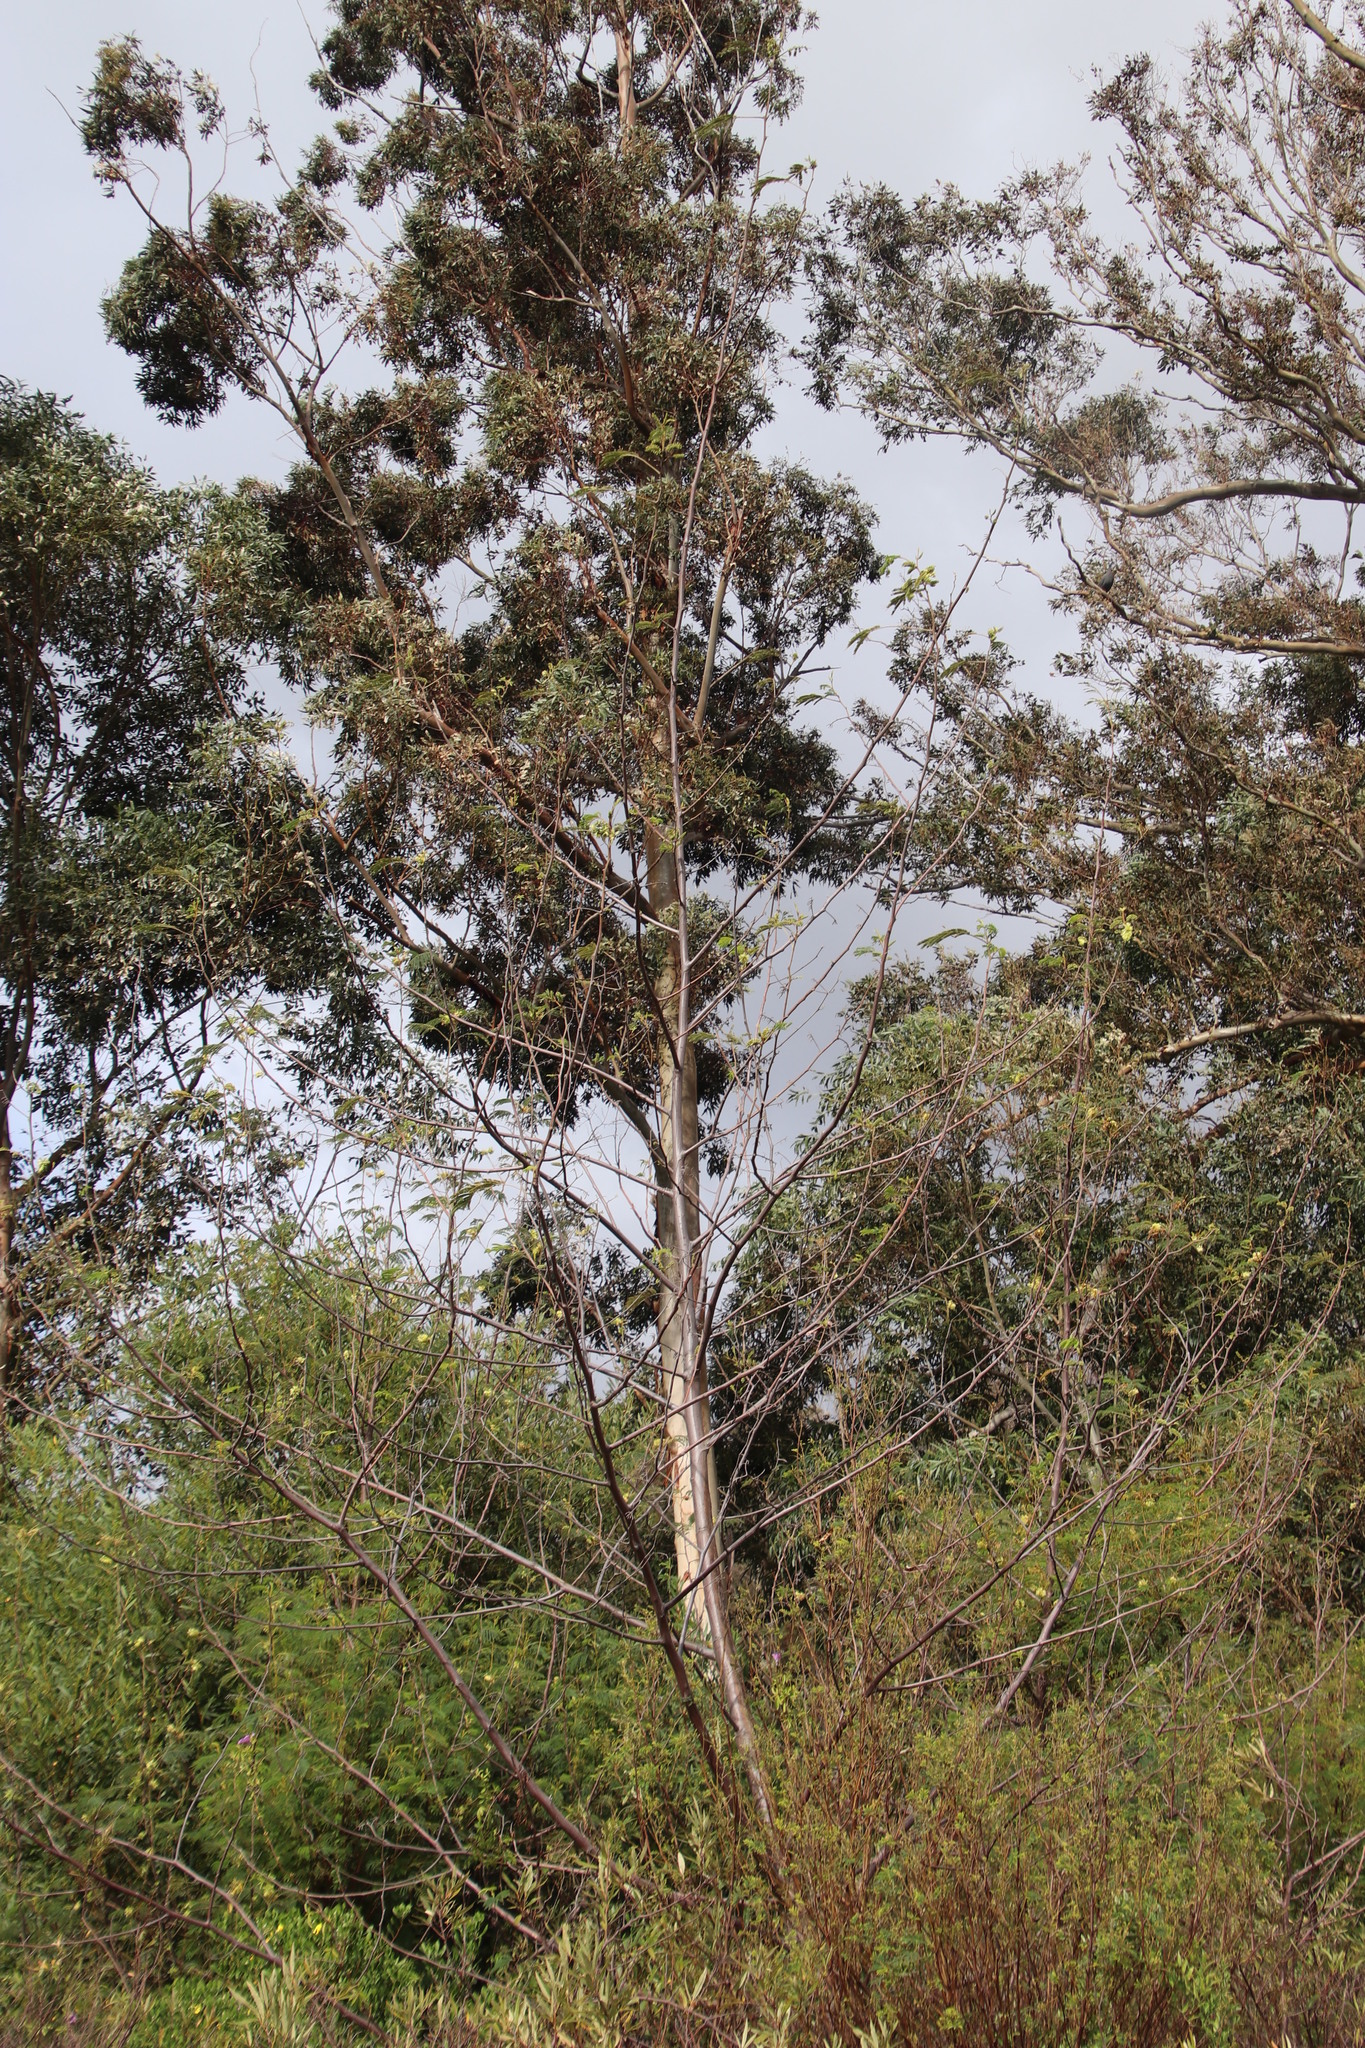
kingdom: Plantae
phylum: Tracheophyta
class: Magnoliopsida
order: Fabales
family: Fabaceae
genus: Paraserianthes
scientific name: Paraserianthes lophantha
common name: Plume albizia
